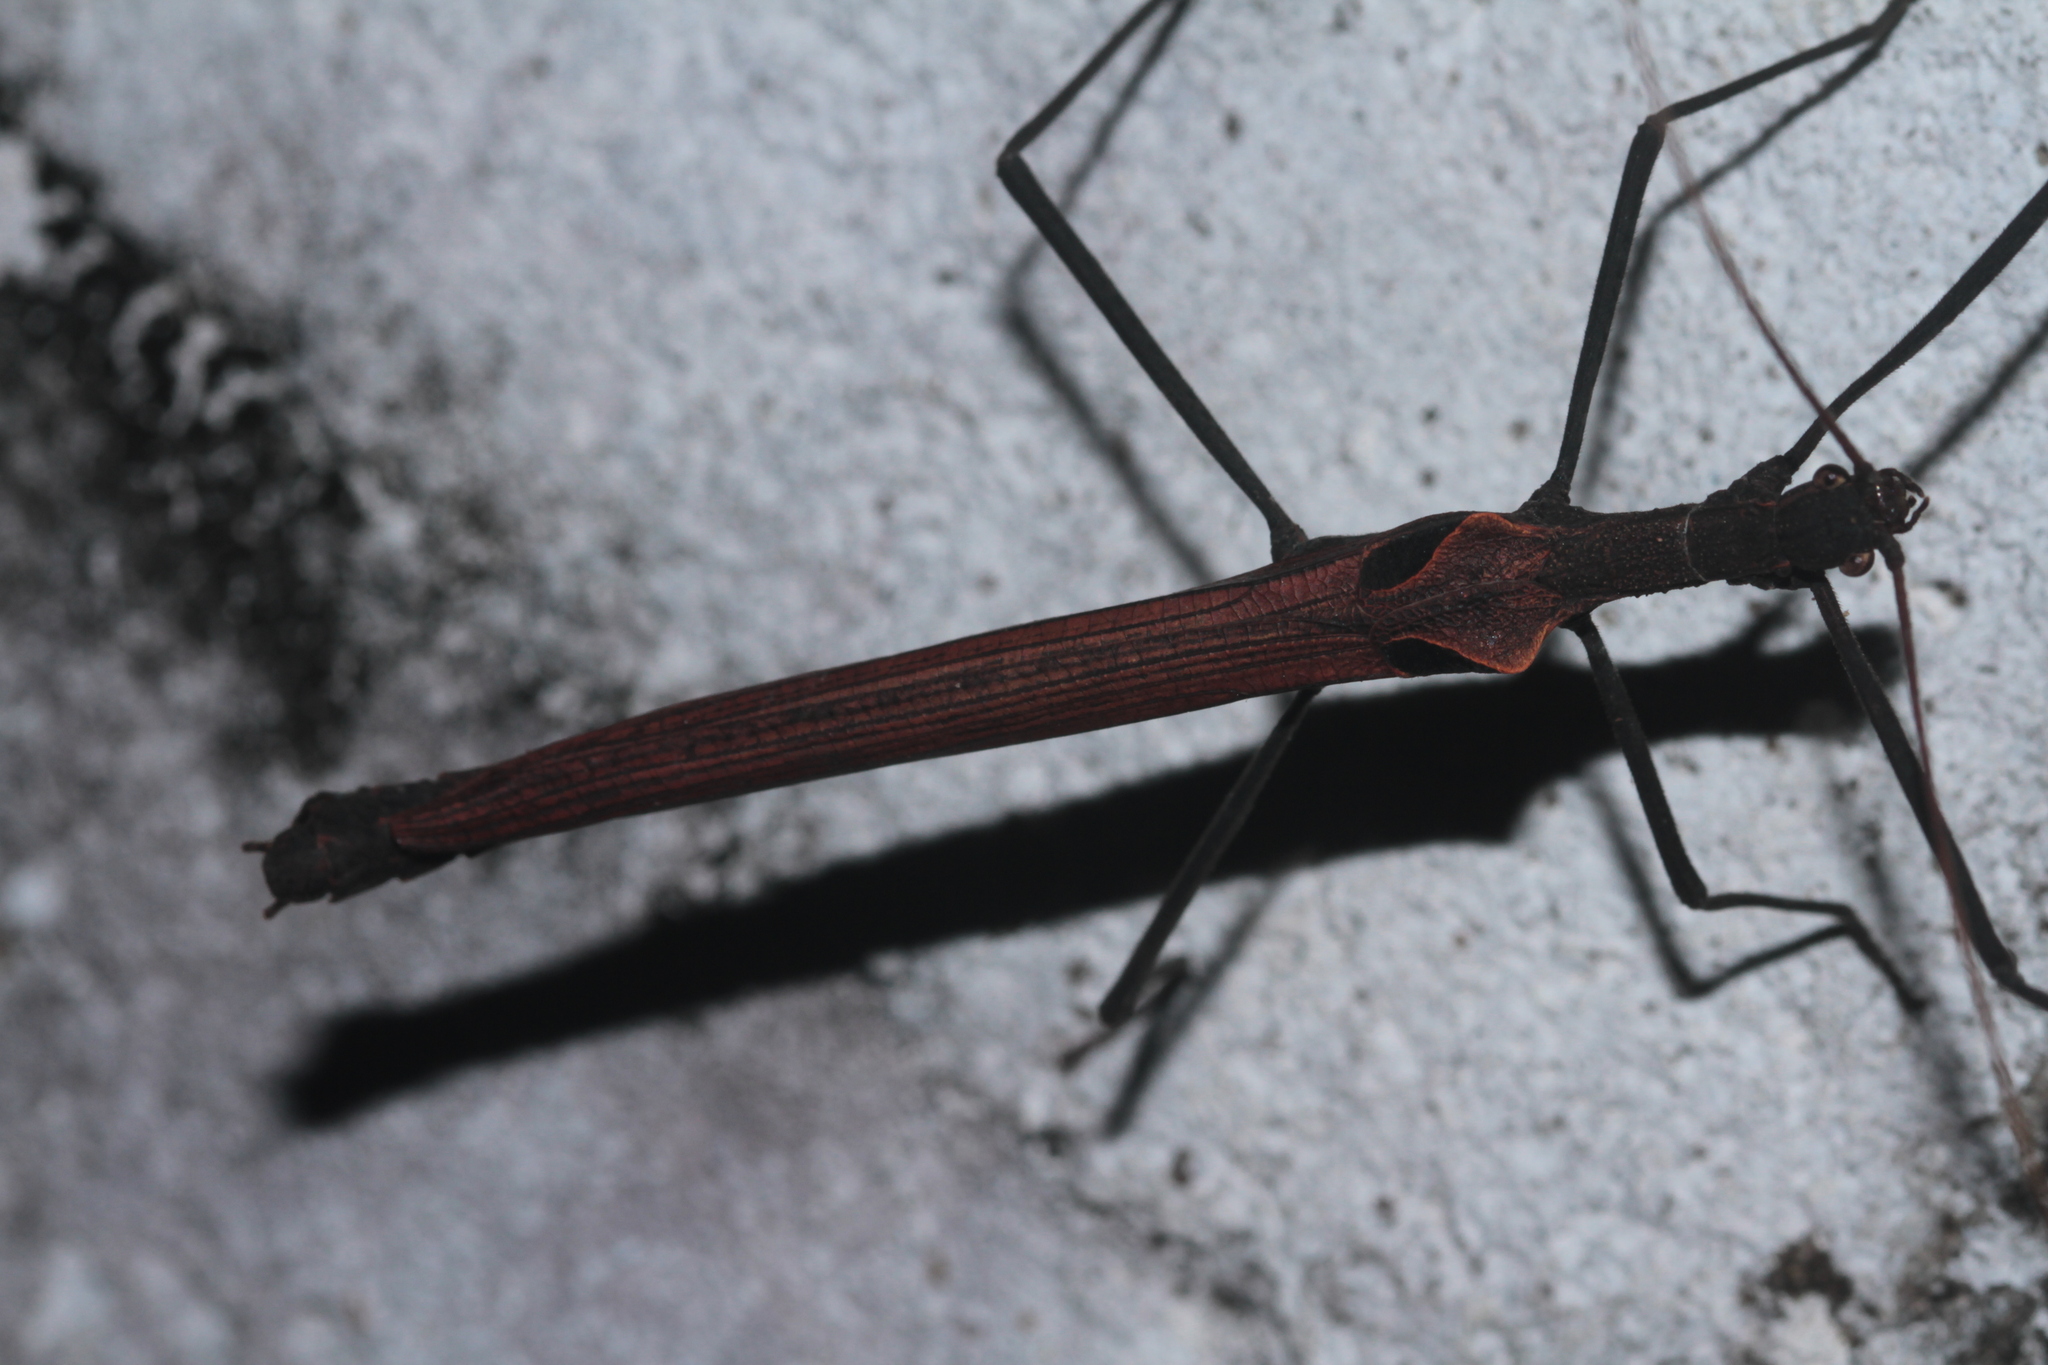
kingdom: Animalia
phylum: Arthropoda
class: Insecta
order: Phasmida
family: Pseudophasmatidae
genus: Pseudophasma
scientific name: Pseudophasma phthisicum
